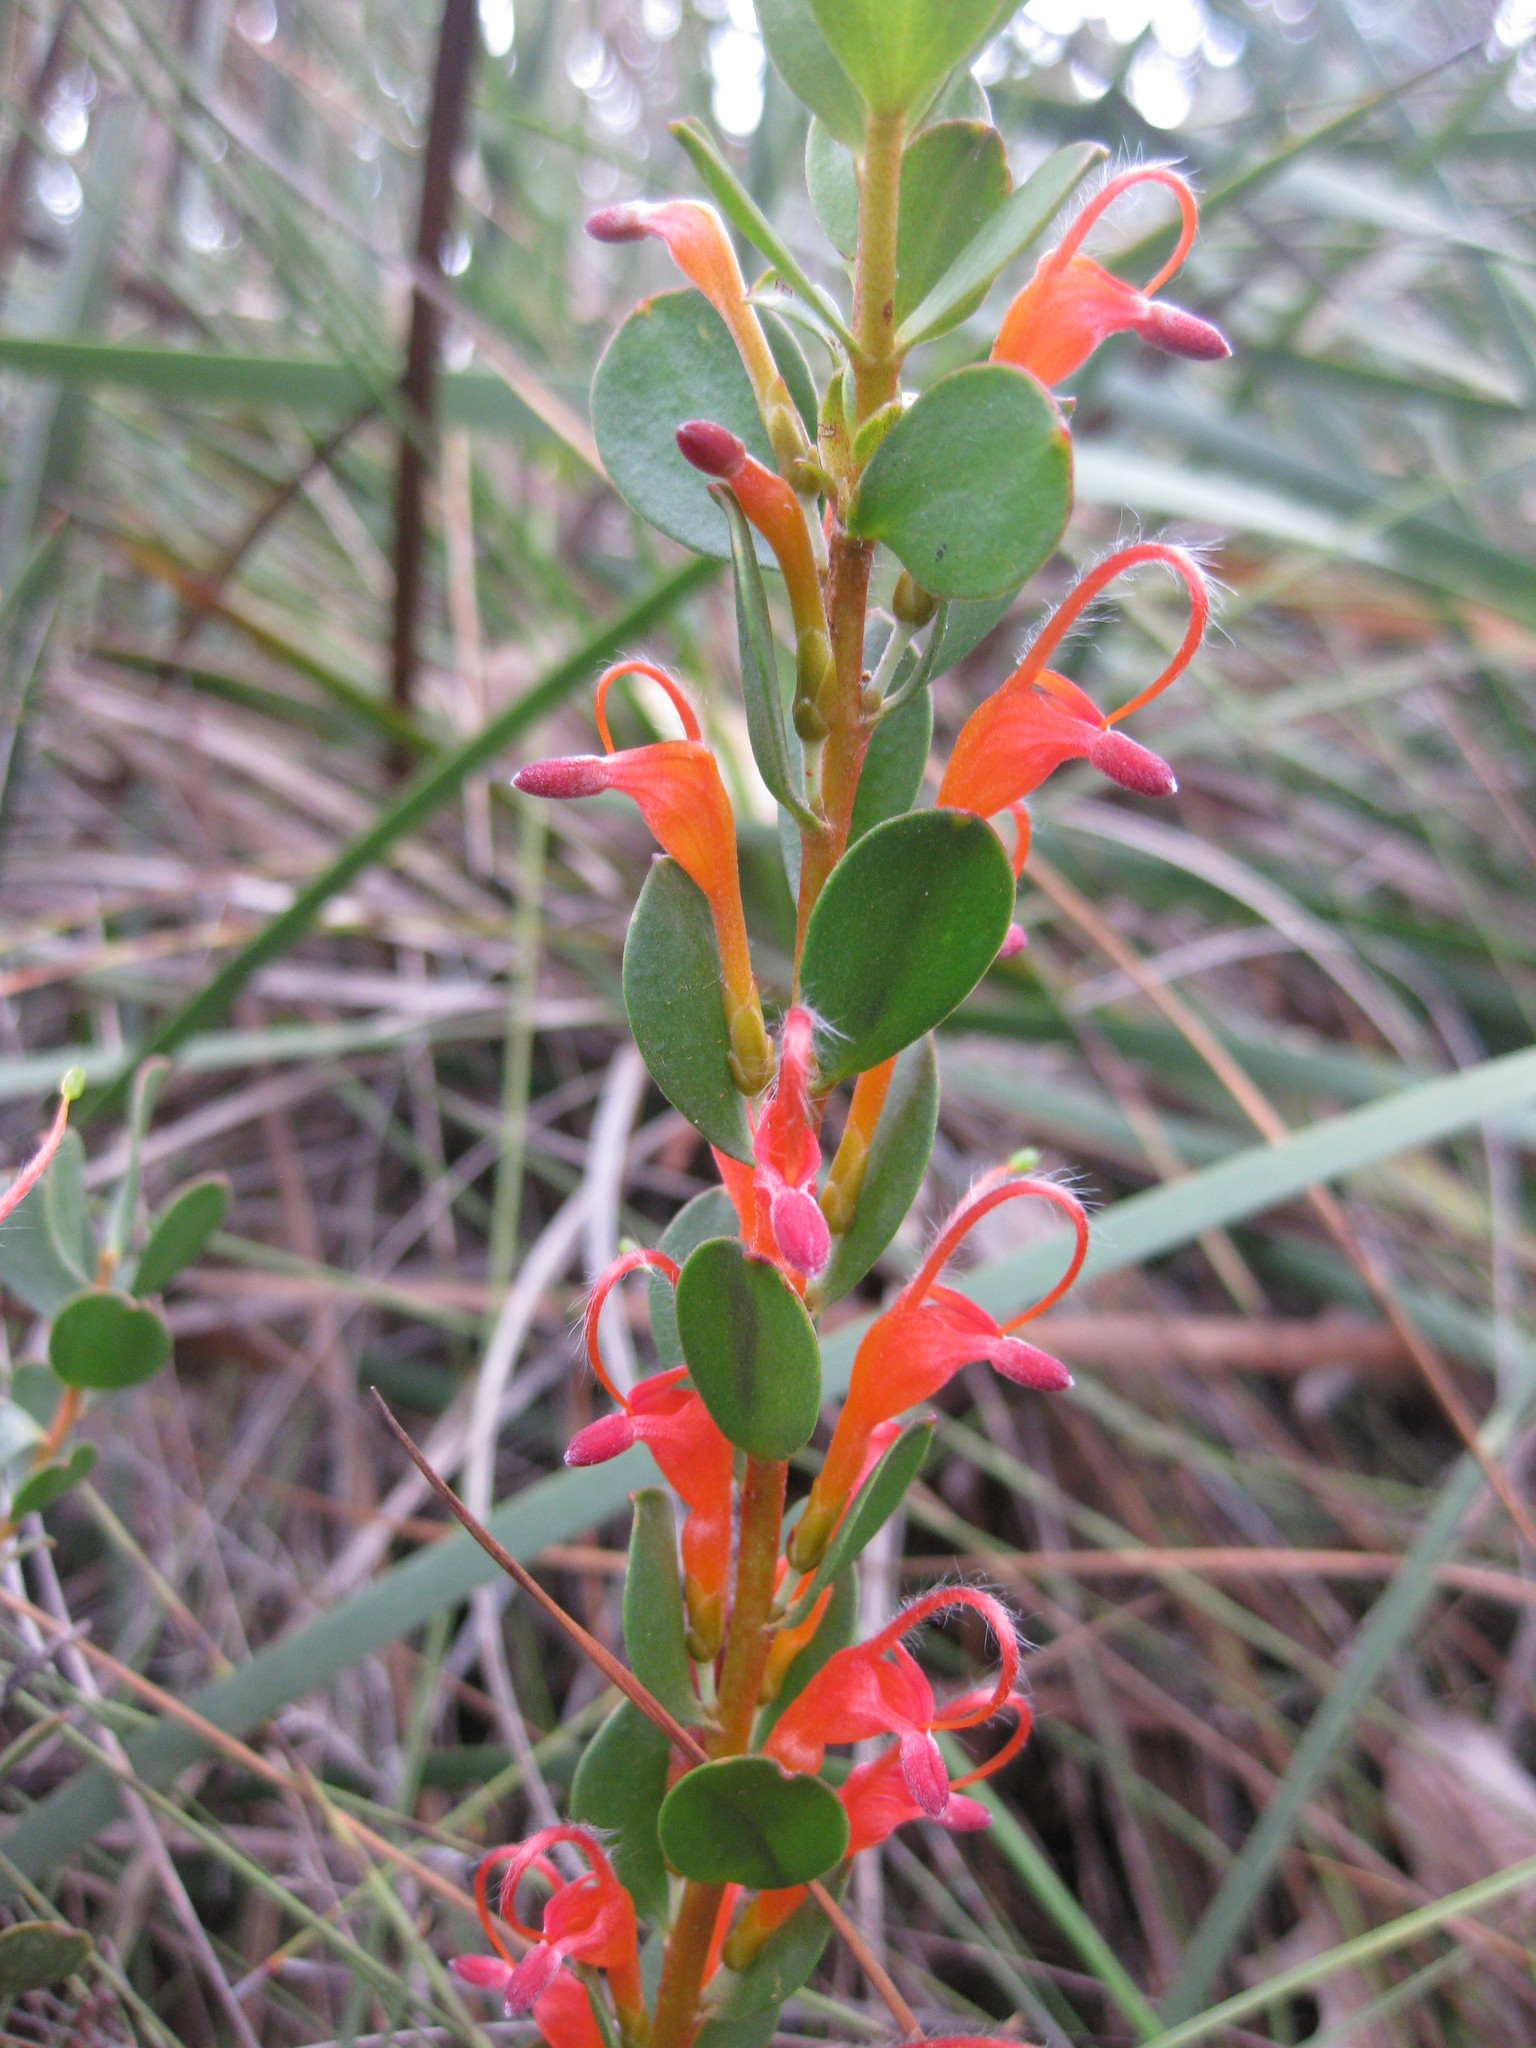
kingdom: Plantae
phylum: Tracheophyta
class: Magnoliopsida
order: Proteales
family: Proteaceae
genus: Adenanthos
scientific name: Adenanthos obovatus
